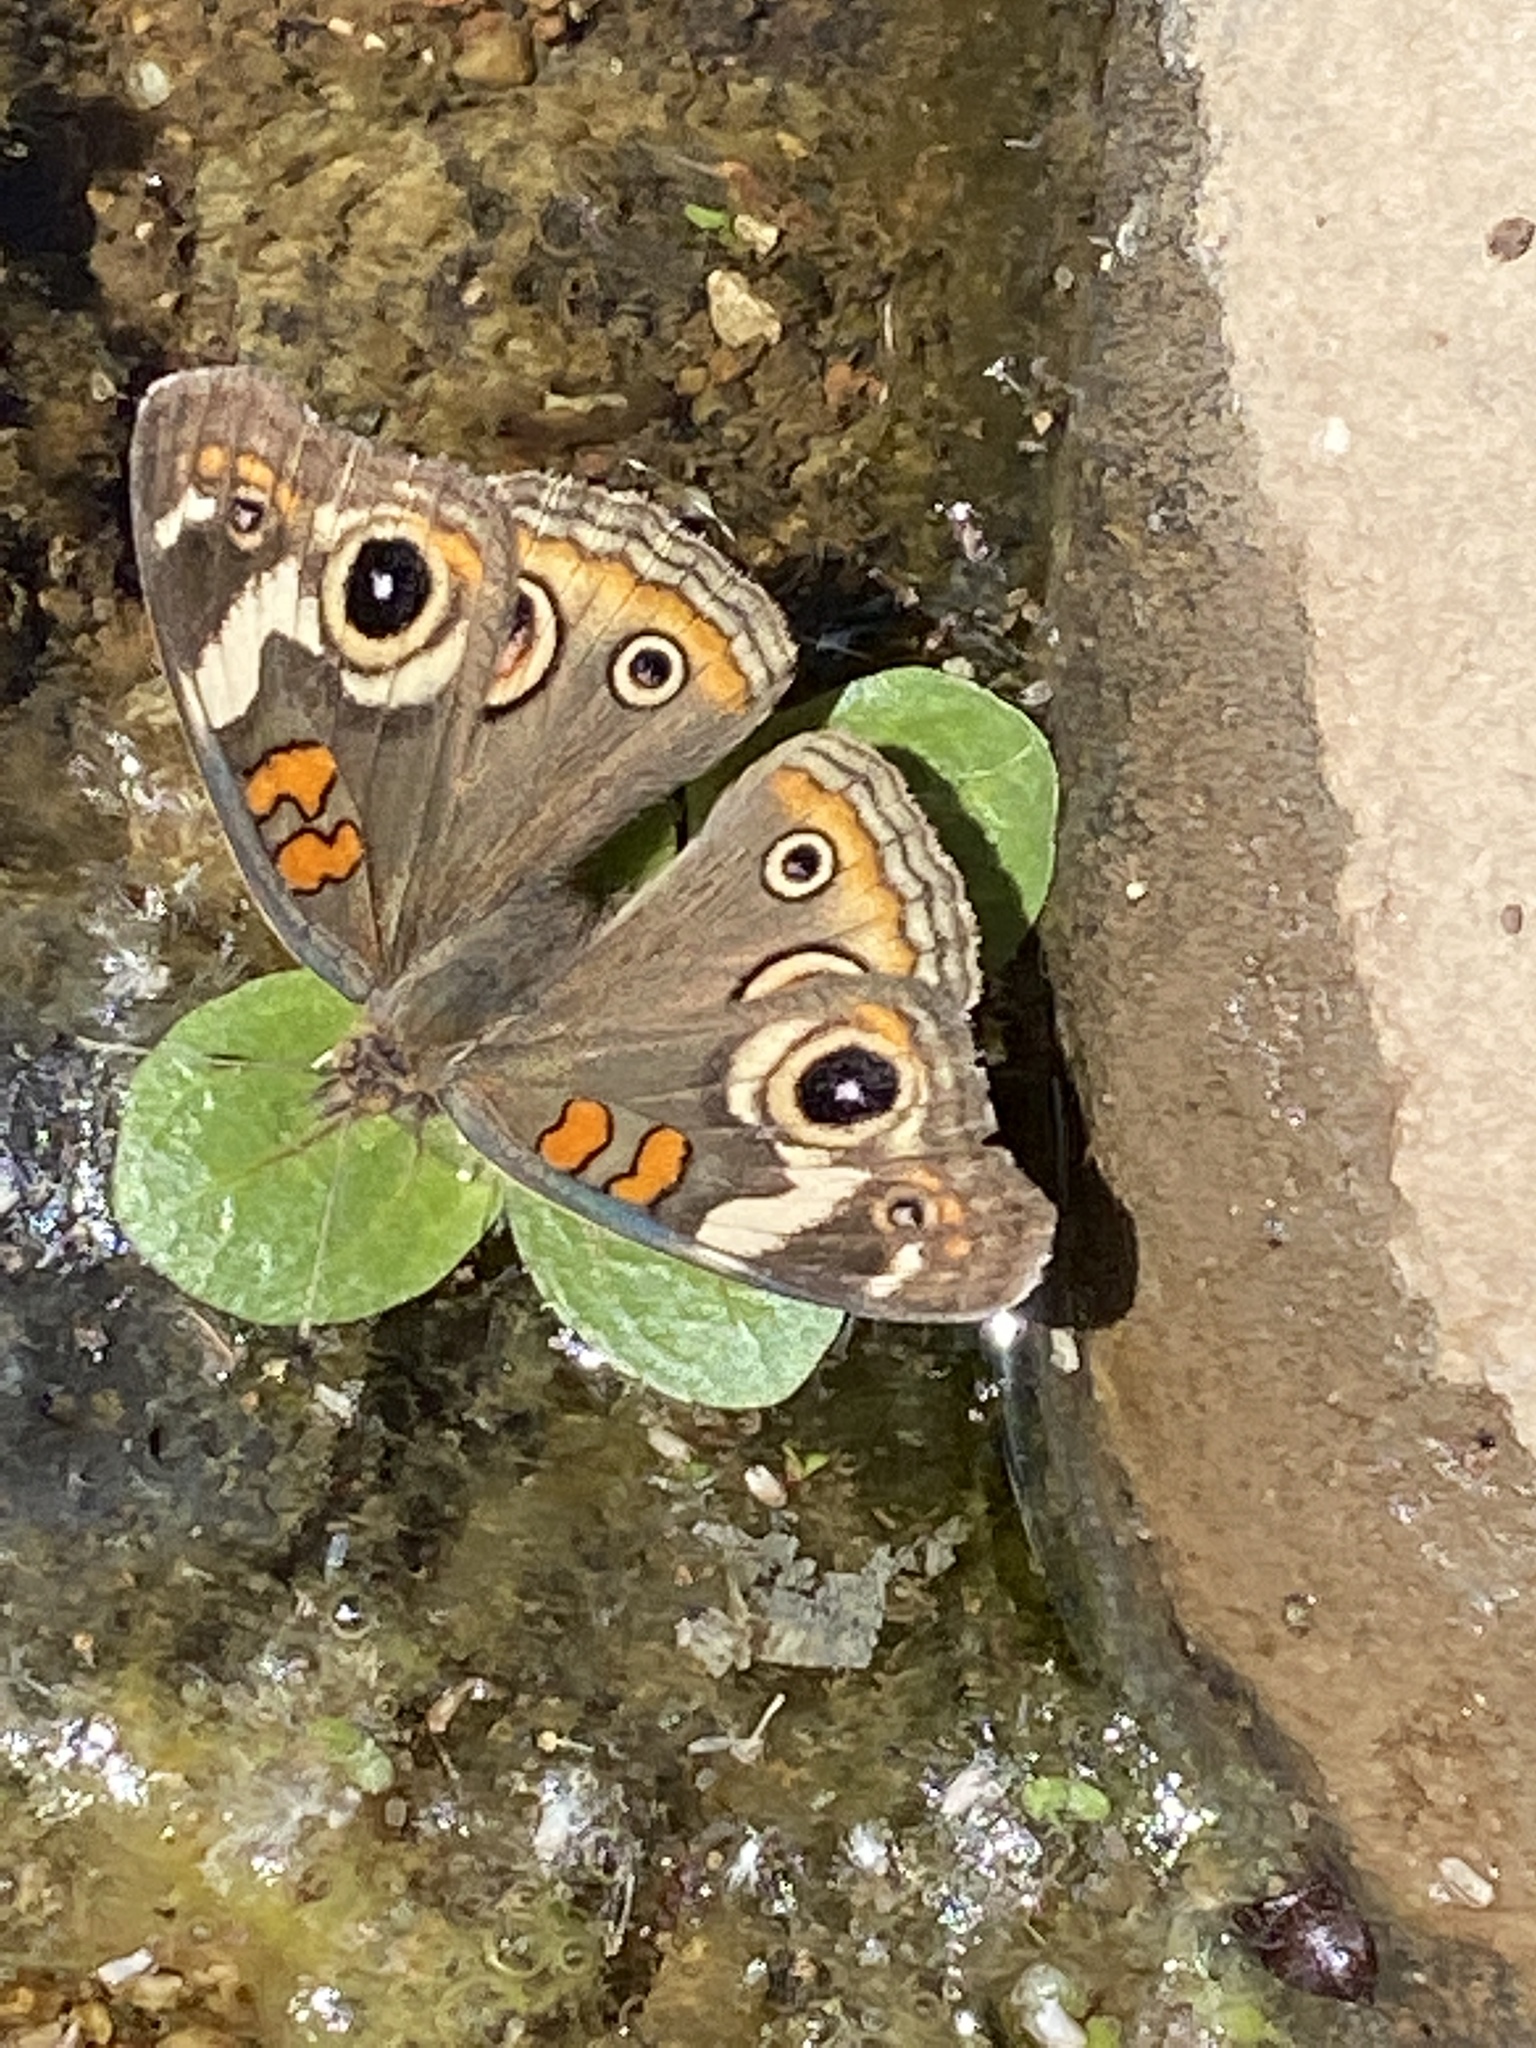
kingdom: Animalia
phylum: Arthropoda
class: Insecta
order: Lepidoptera
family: Nymphalidae
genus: Junonia
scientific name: Junonia grisea
